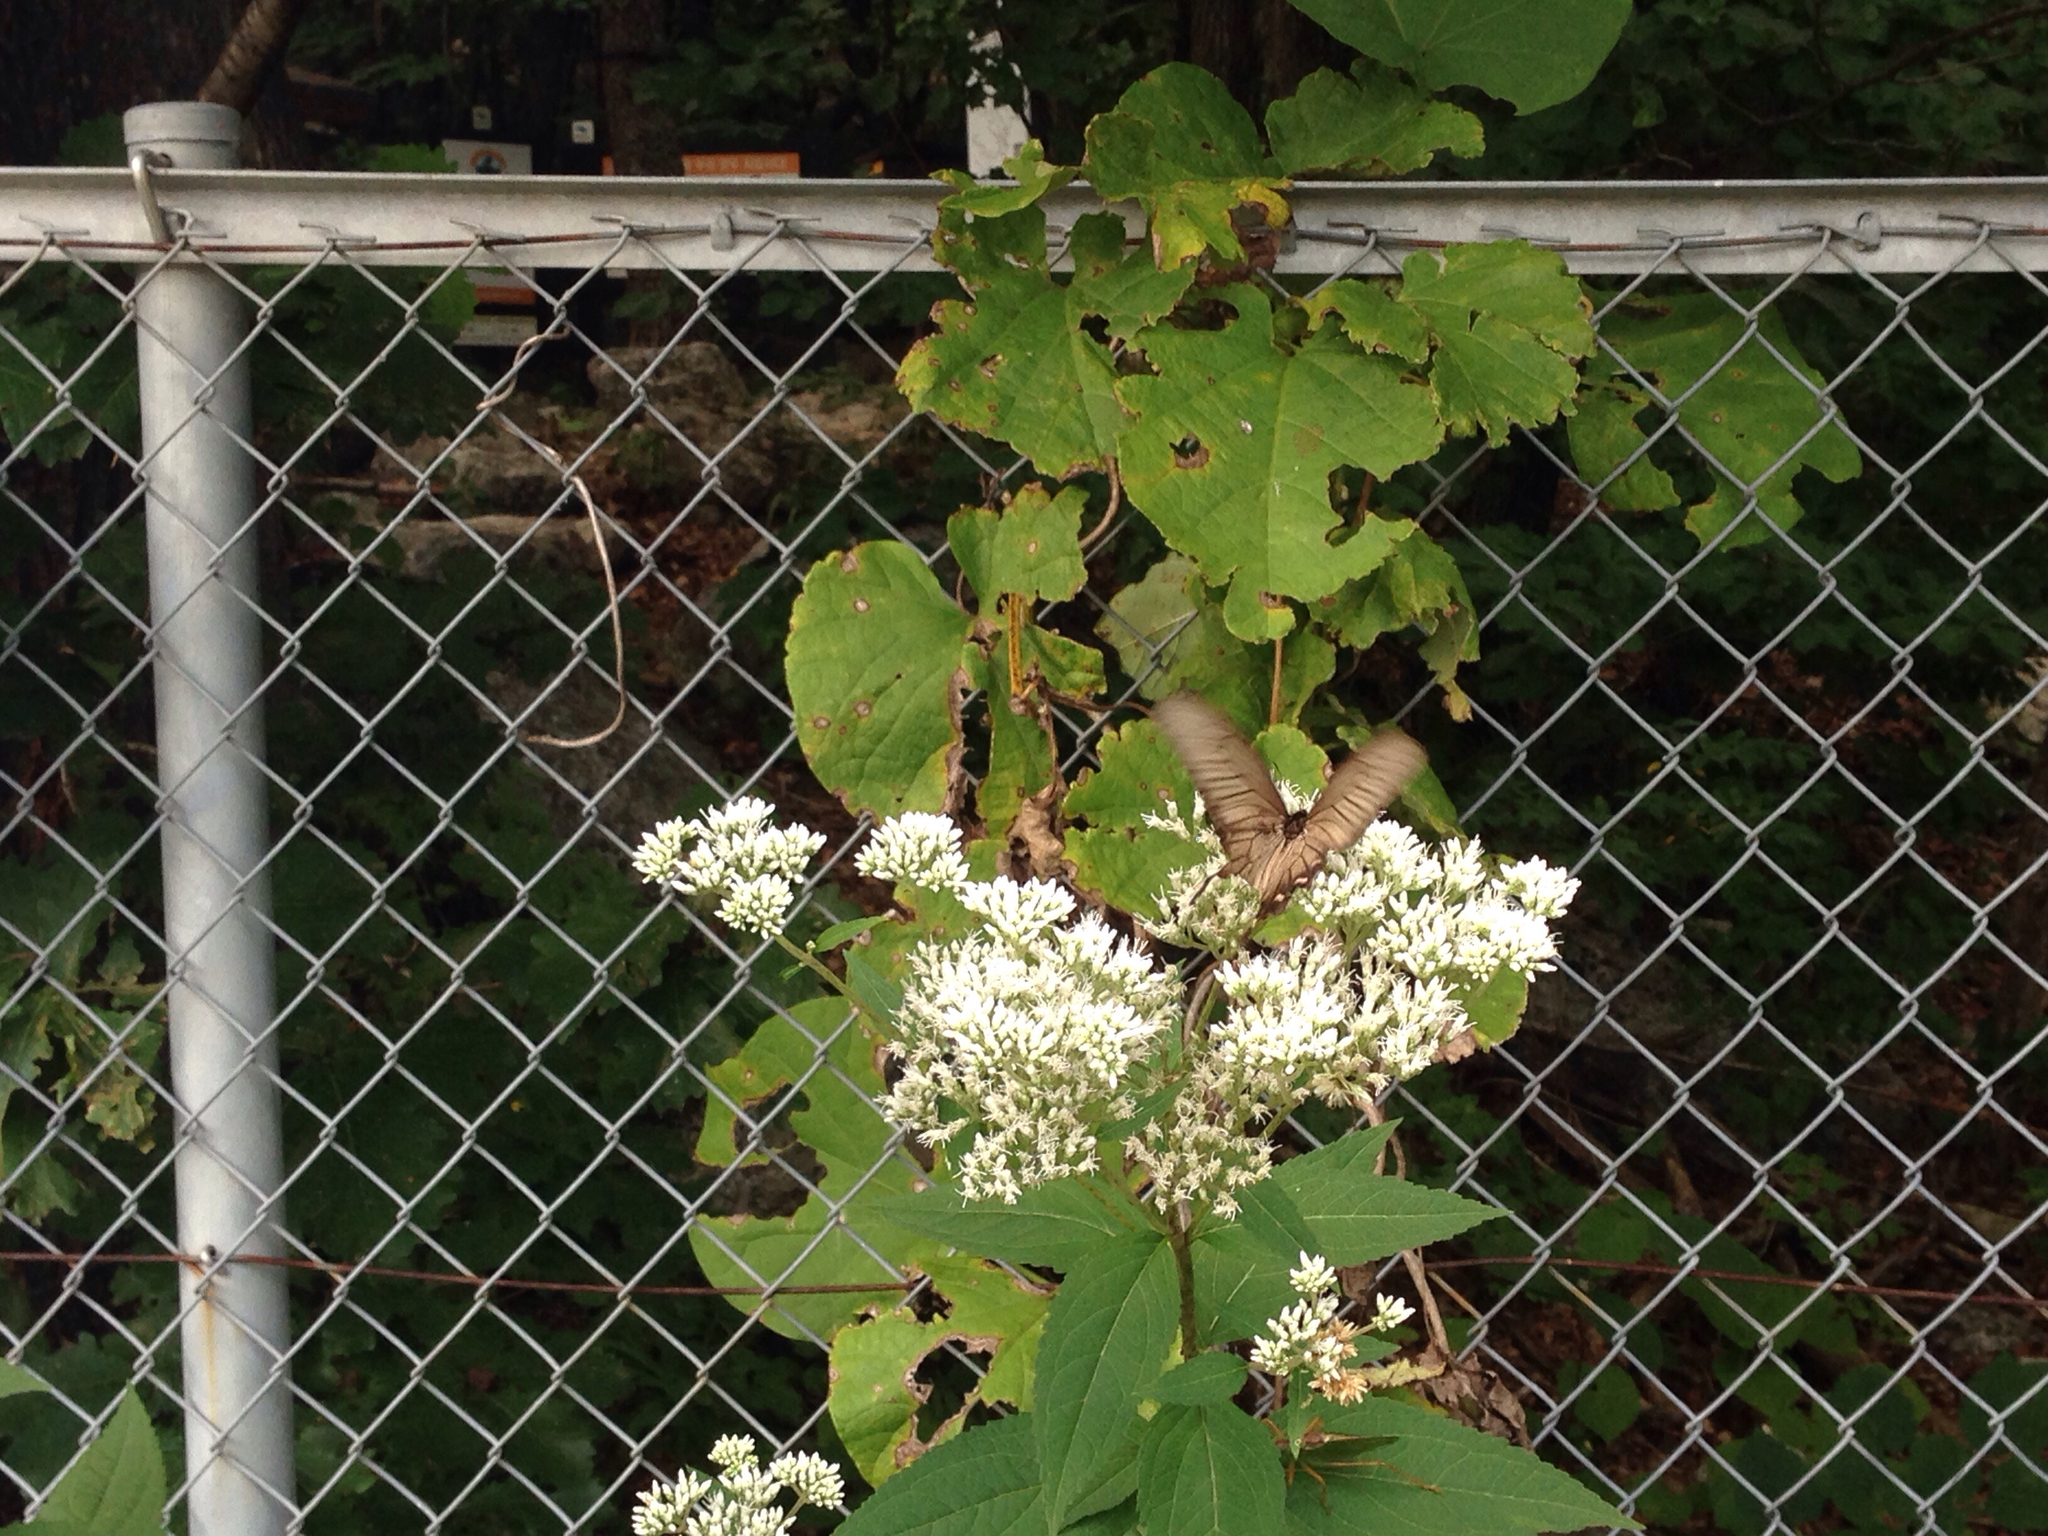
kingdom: Animalia
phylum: Arthropoda
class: Insecta
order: Lepidoptera
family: Papilionidae
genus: Byasa
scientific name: Byasa alcinous
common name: Chinese windmill
